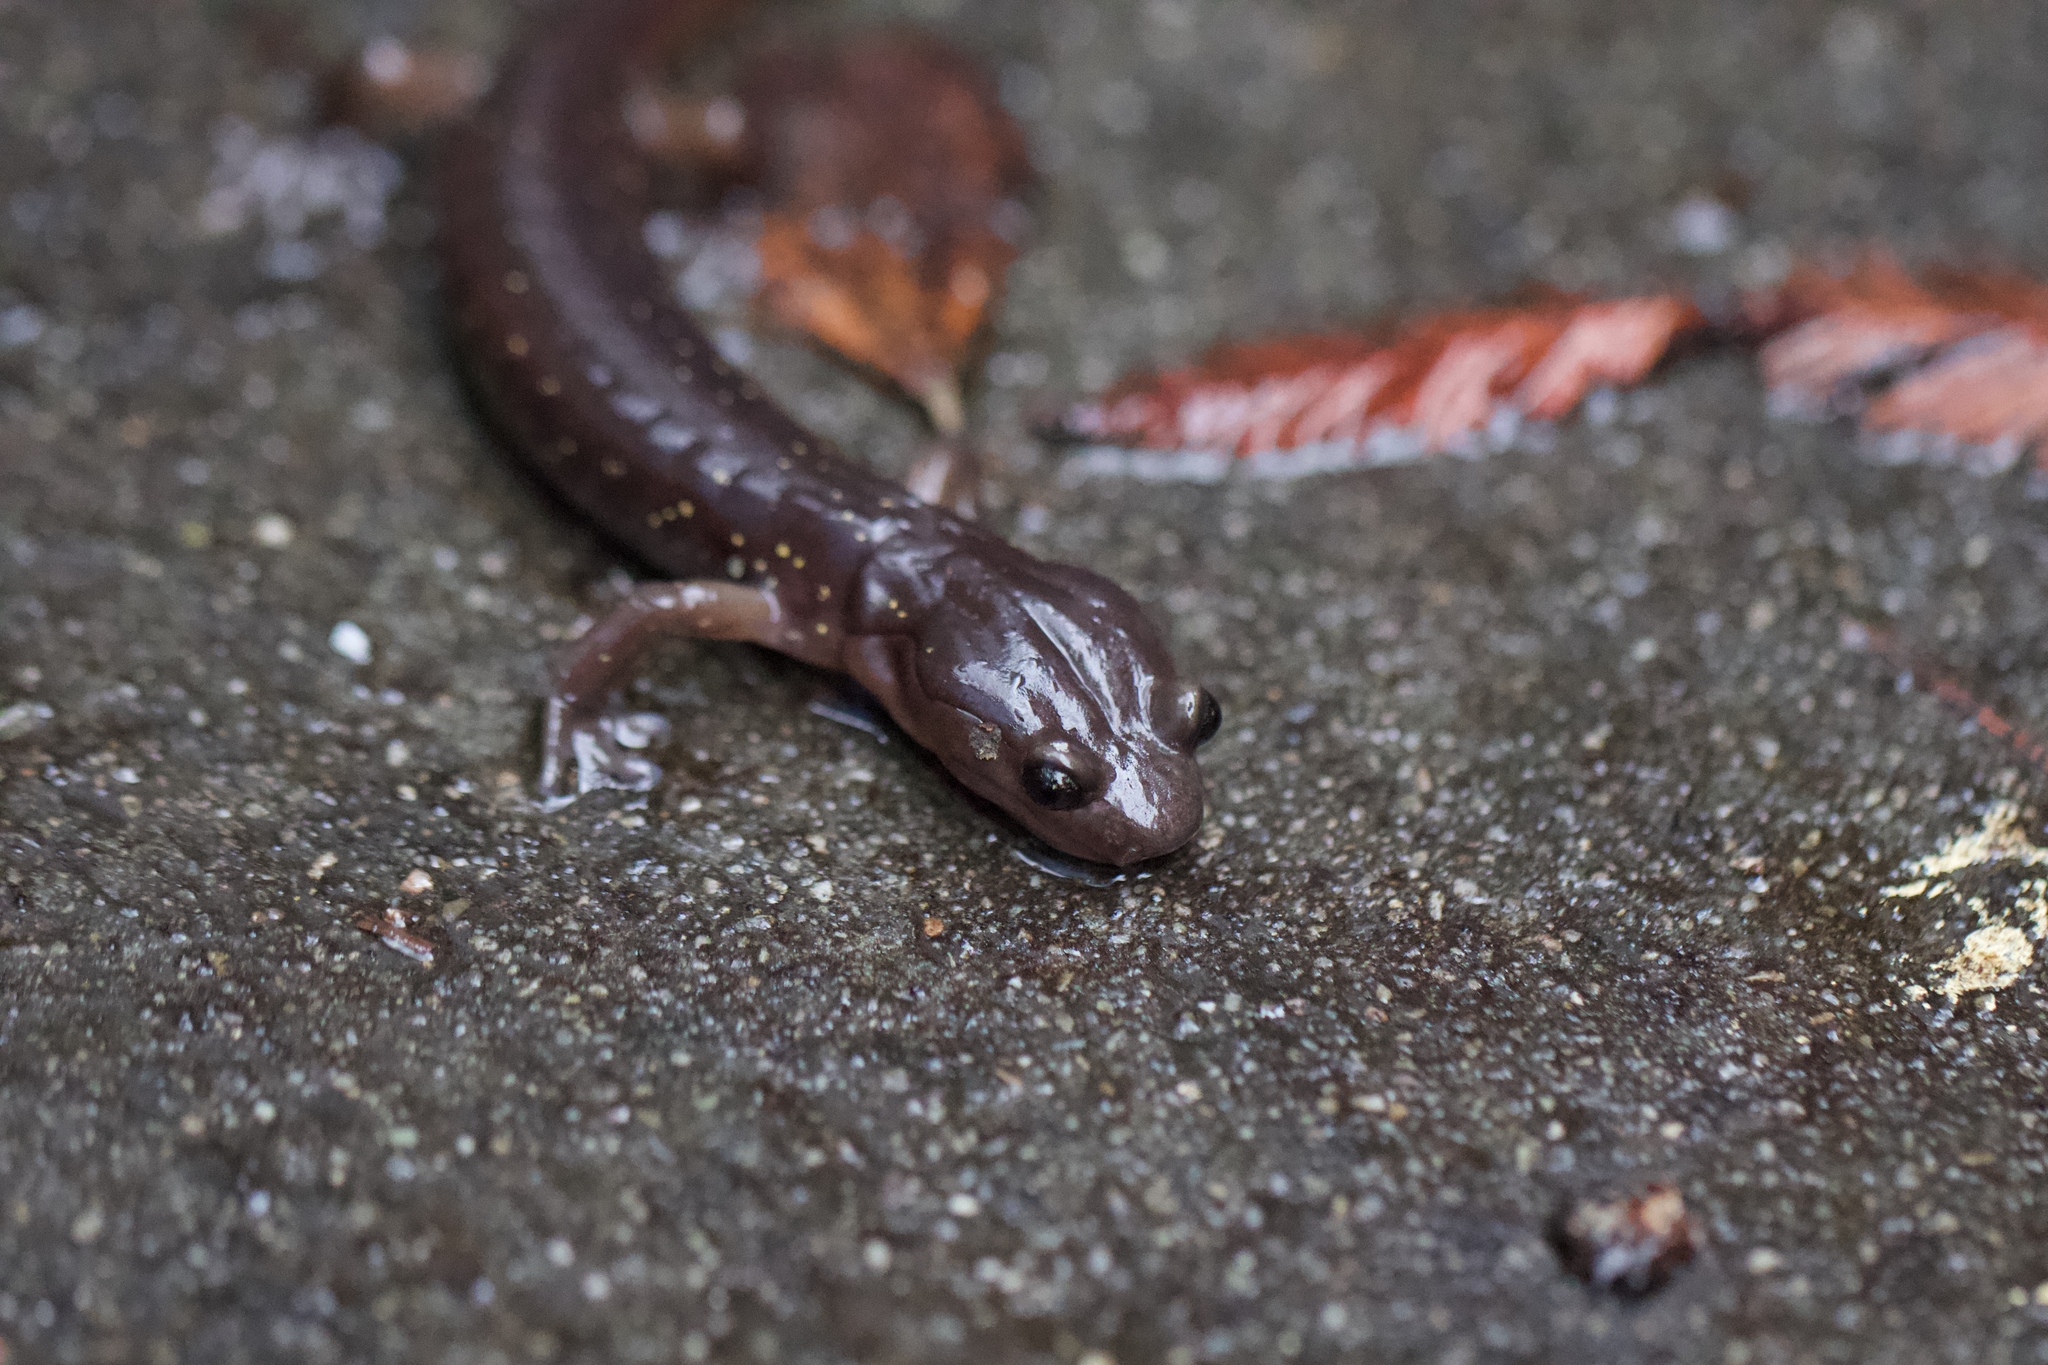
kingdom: Animalia
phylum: Chordata
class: Amphibia
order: Caudata
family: Plethodontidae
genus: Aneides
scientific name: Aneides lugubris
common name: Arboreal salamander
